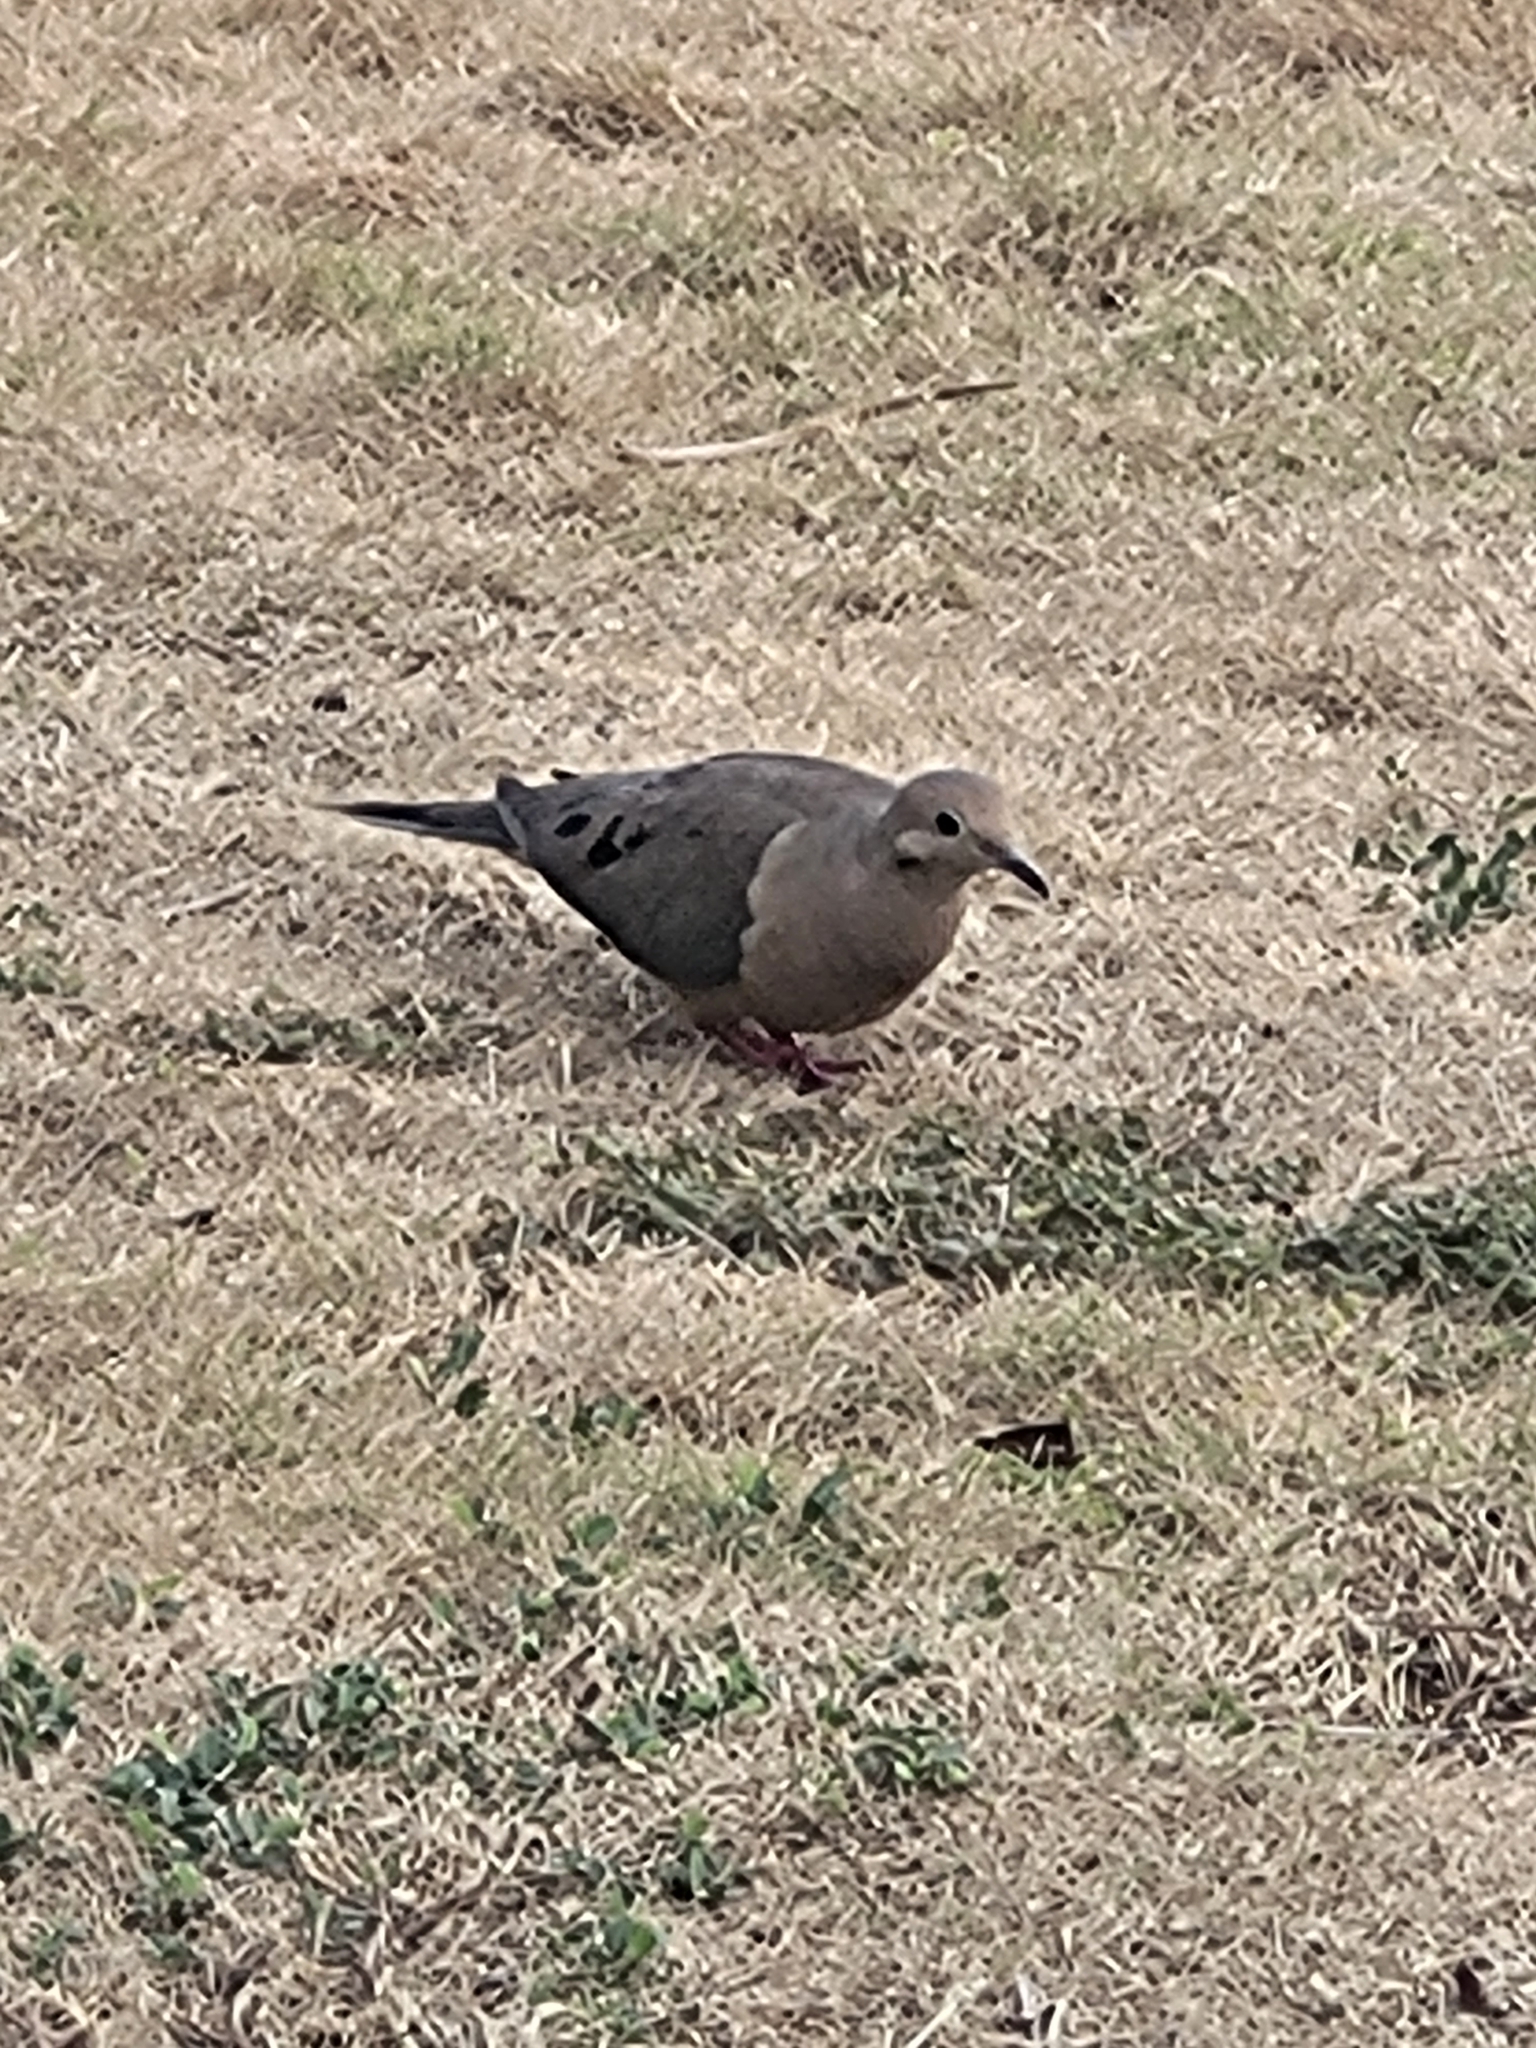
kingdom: Animalia
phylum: Chordata
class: Aves
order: Columbiformes
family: Columbidae
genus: Zenaida
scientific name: Zenaida macroura
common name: Mourning dove
